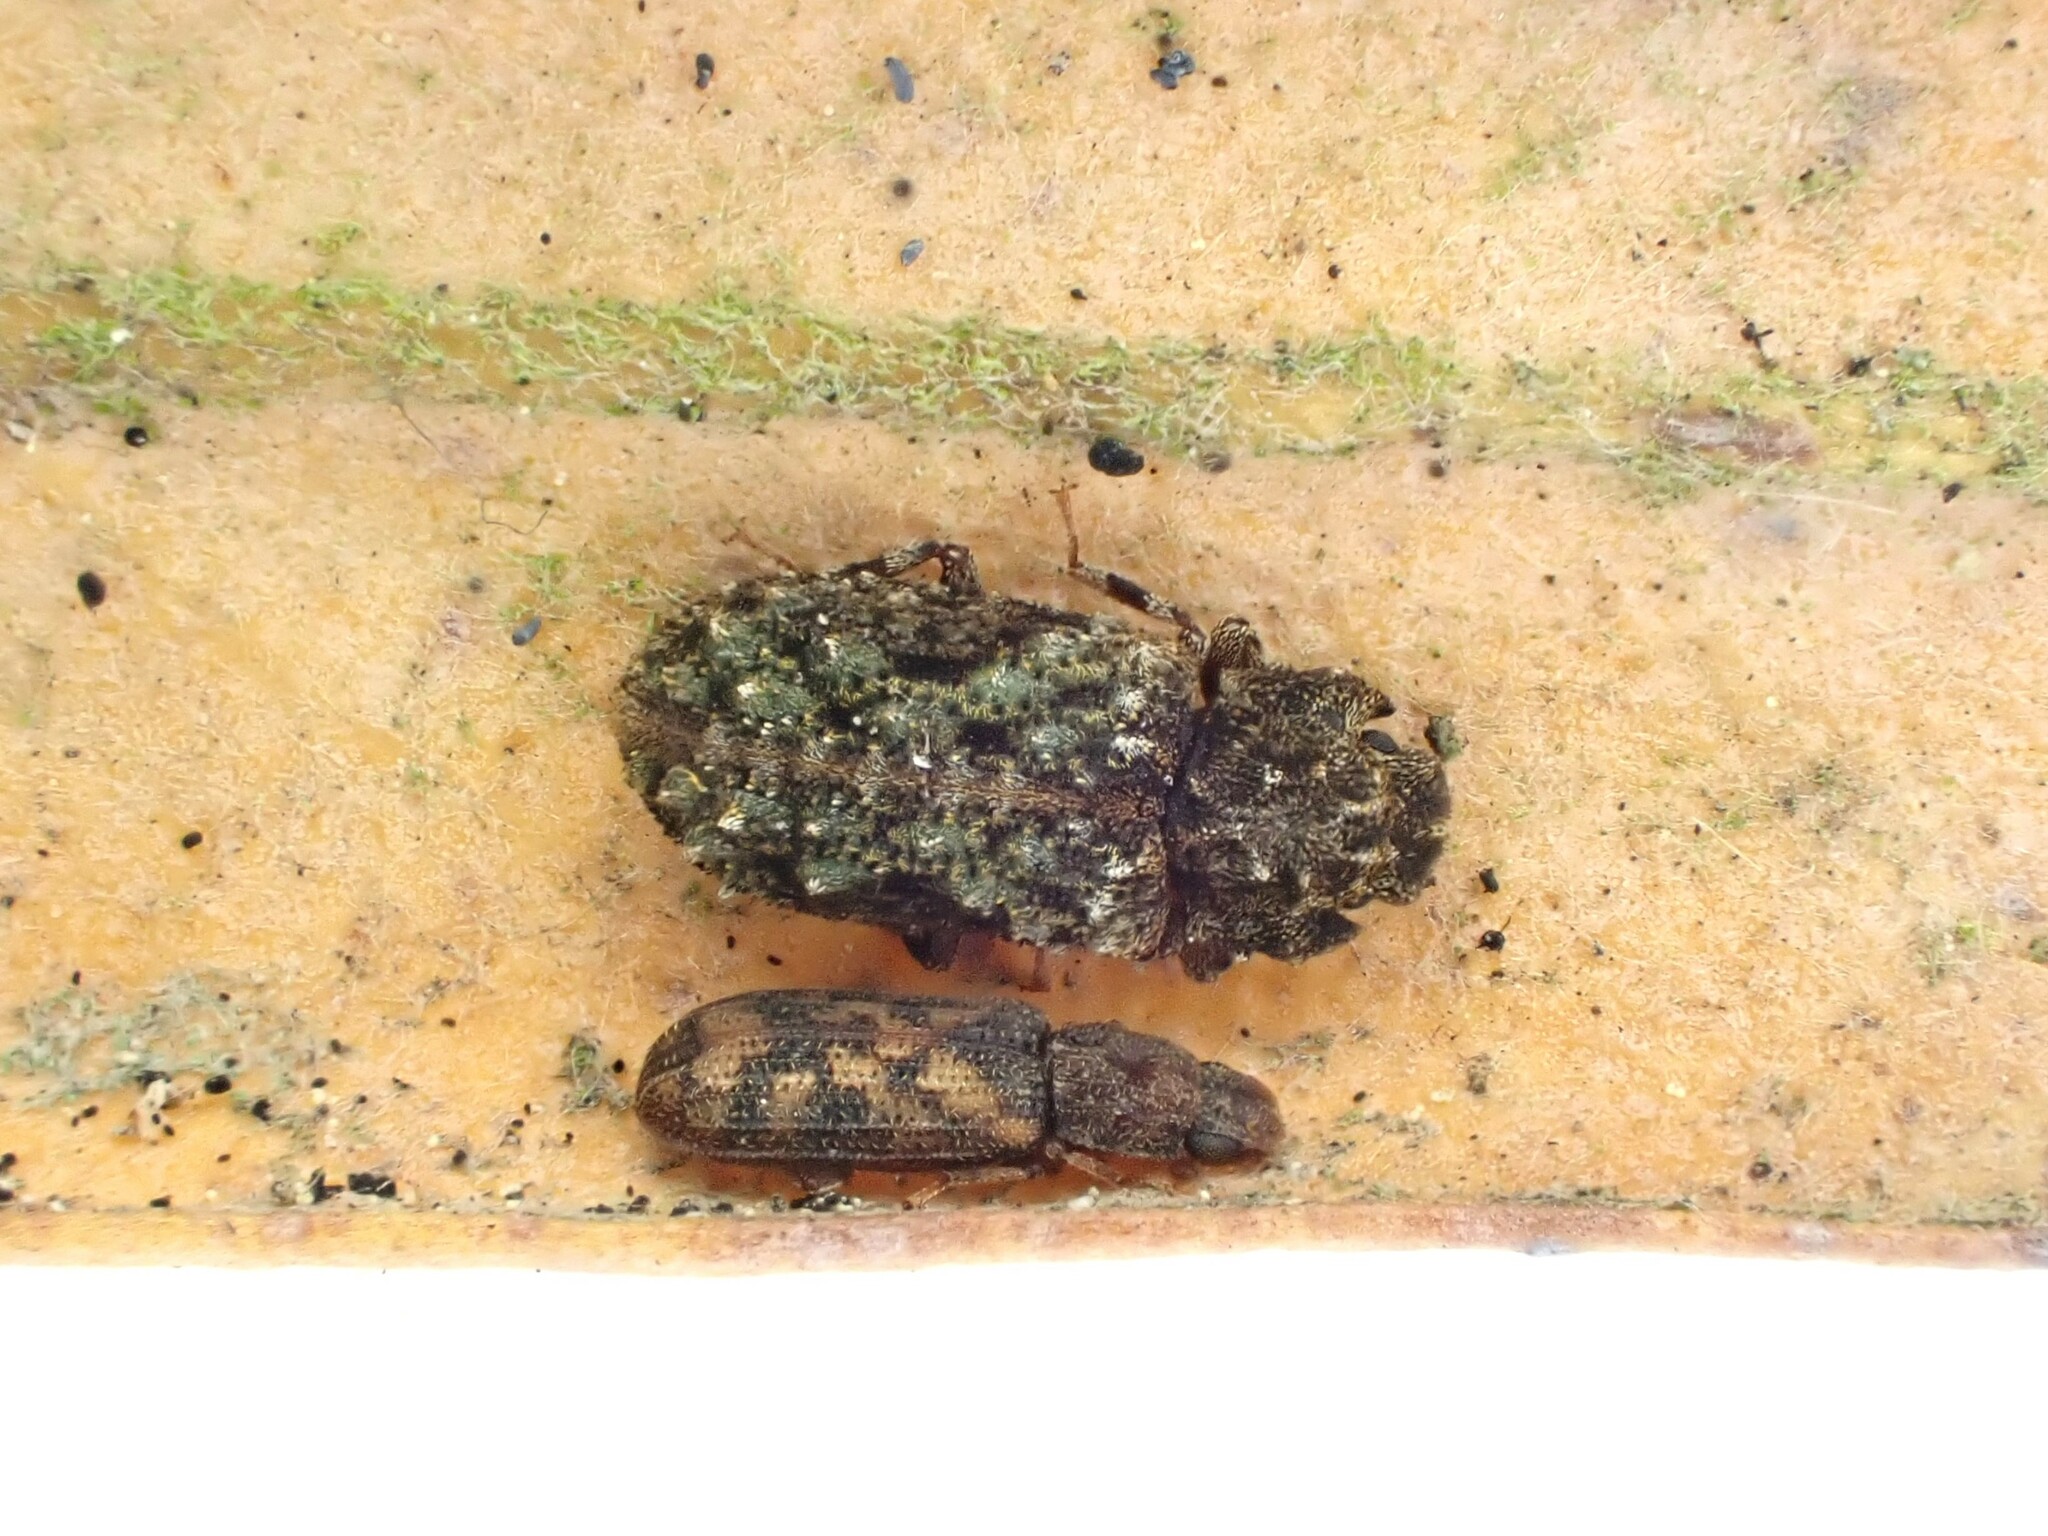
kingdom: Animalia
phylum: Arthropoda
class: Insecta
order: Coleoptera
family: Zopheridae
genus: Pristoderus
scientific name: Pristoderus
